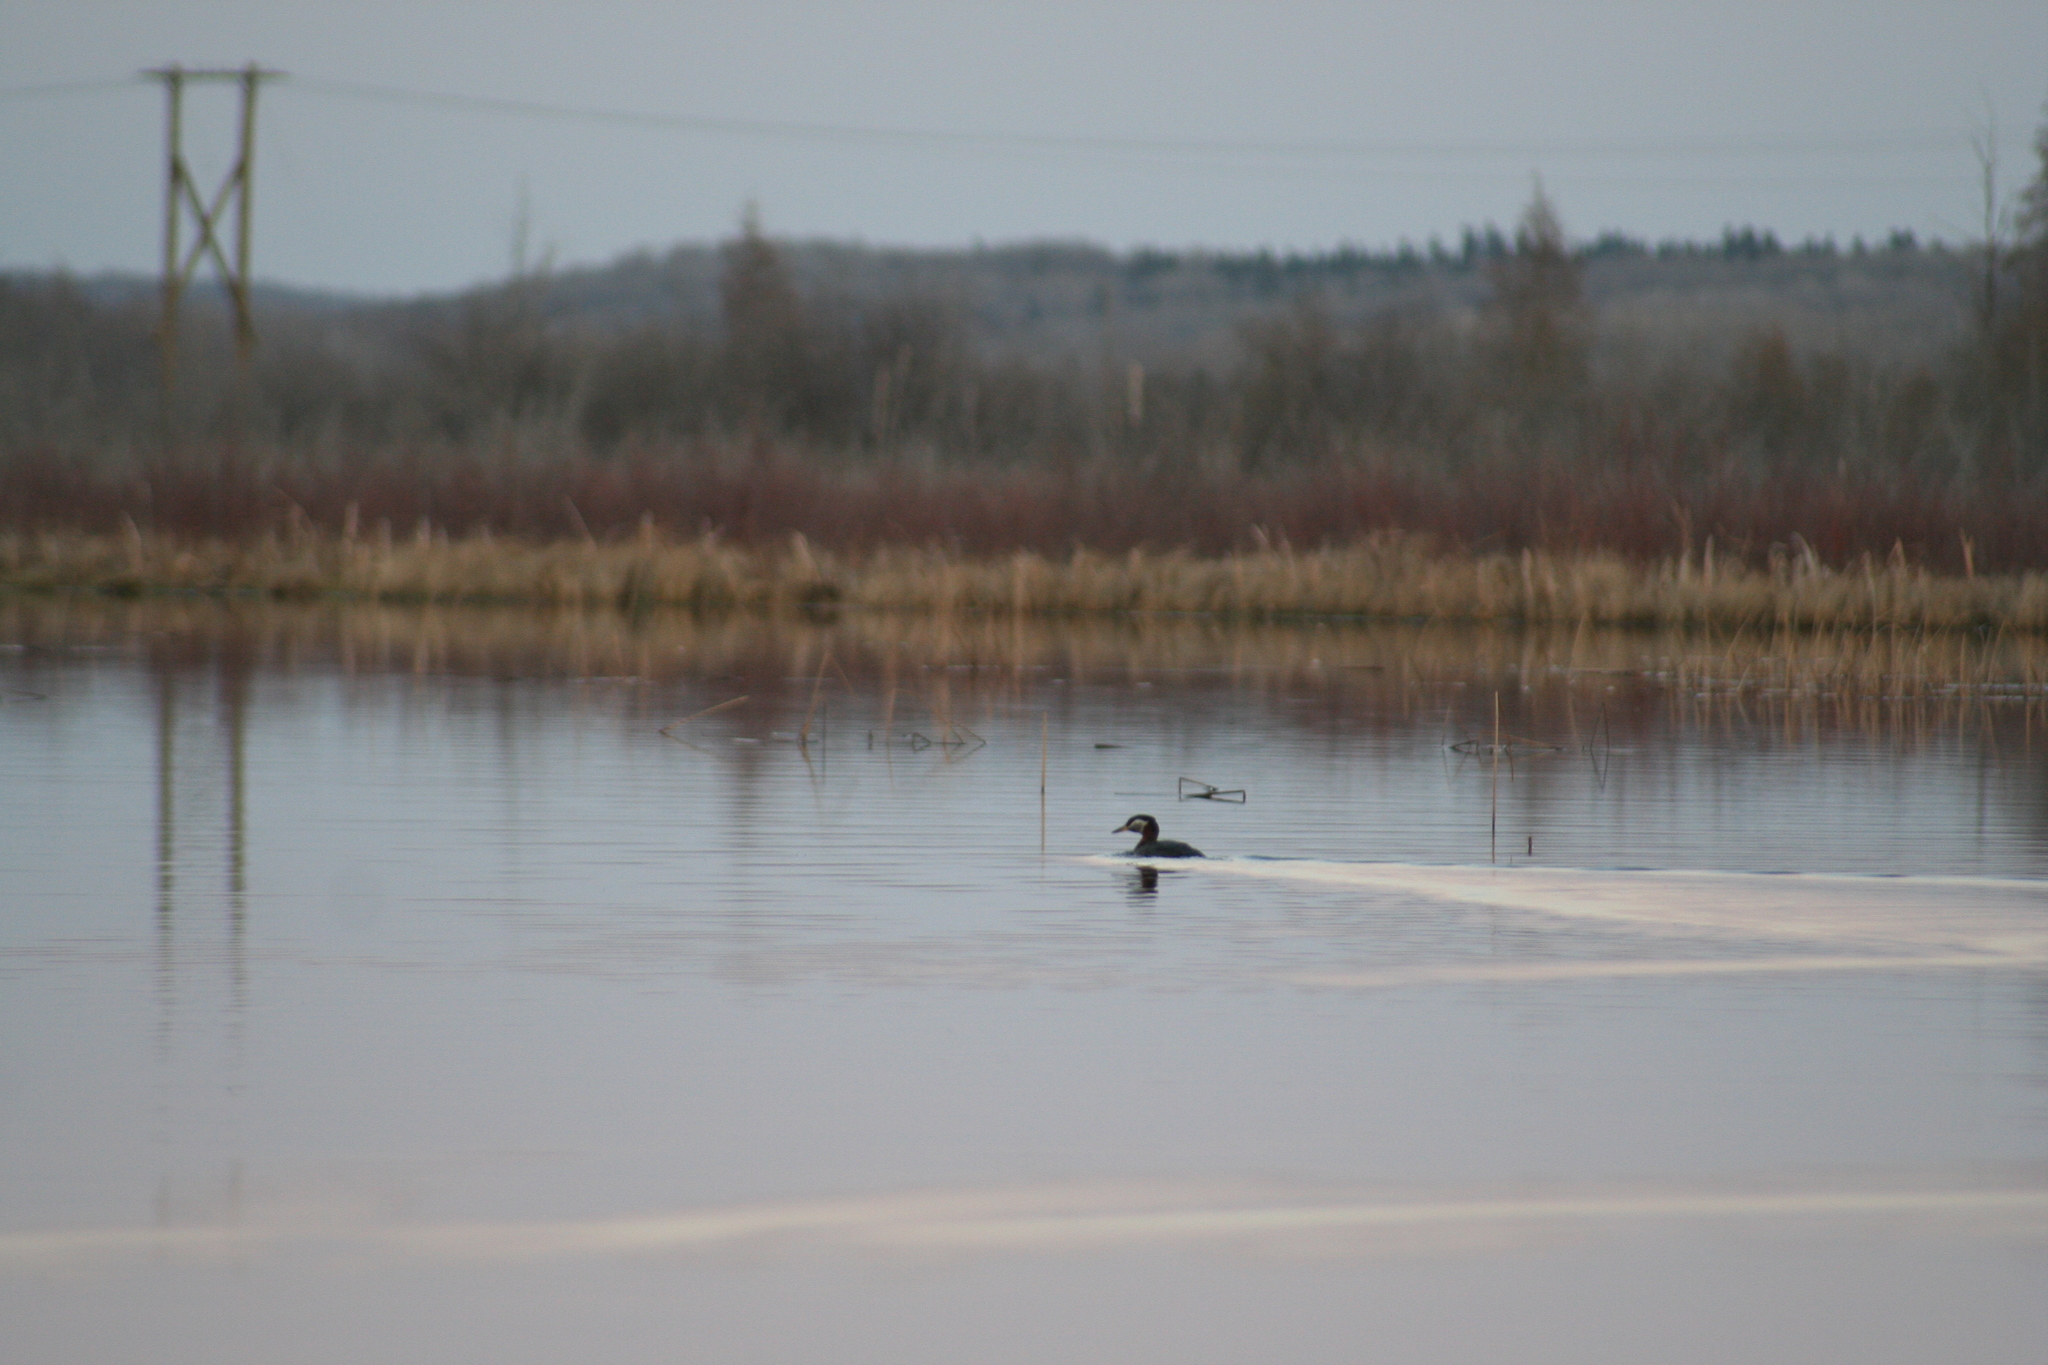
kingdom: Animalia
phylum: Chordata
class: Aves
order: Podicipediformes
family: Podicipedidae
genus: Podiceps
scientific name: Podiceps grisegena
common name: Red-necked grebe
